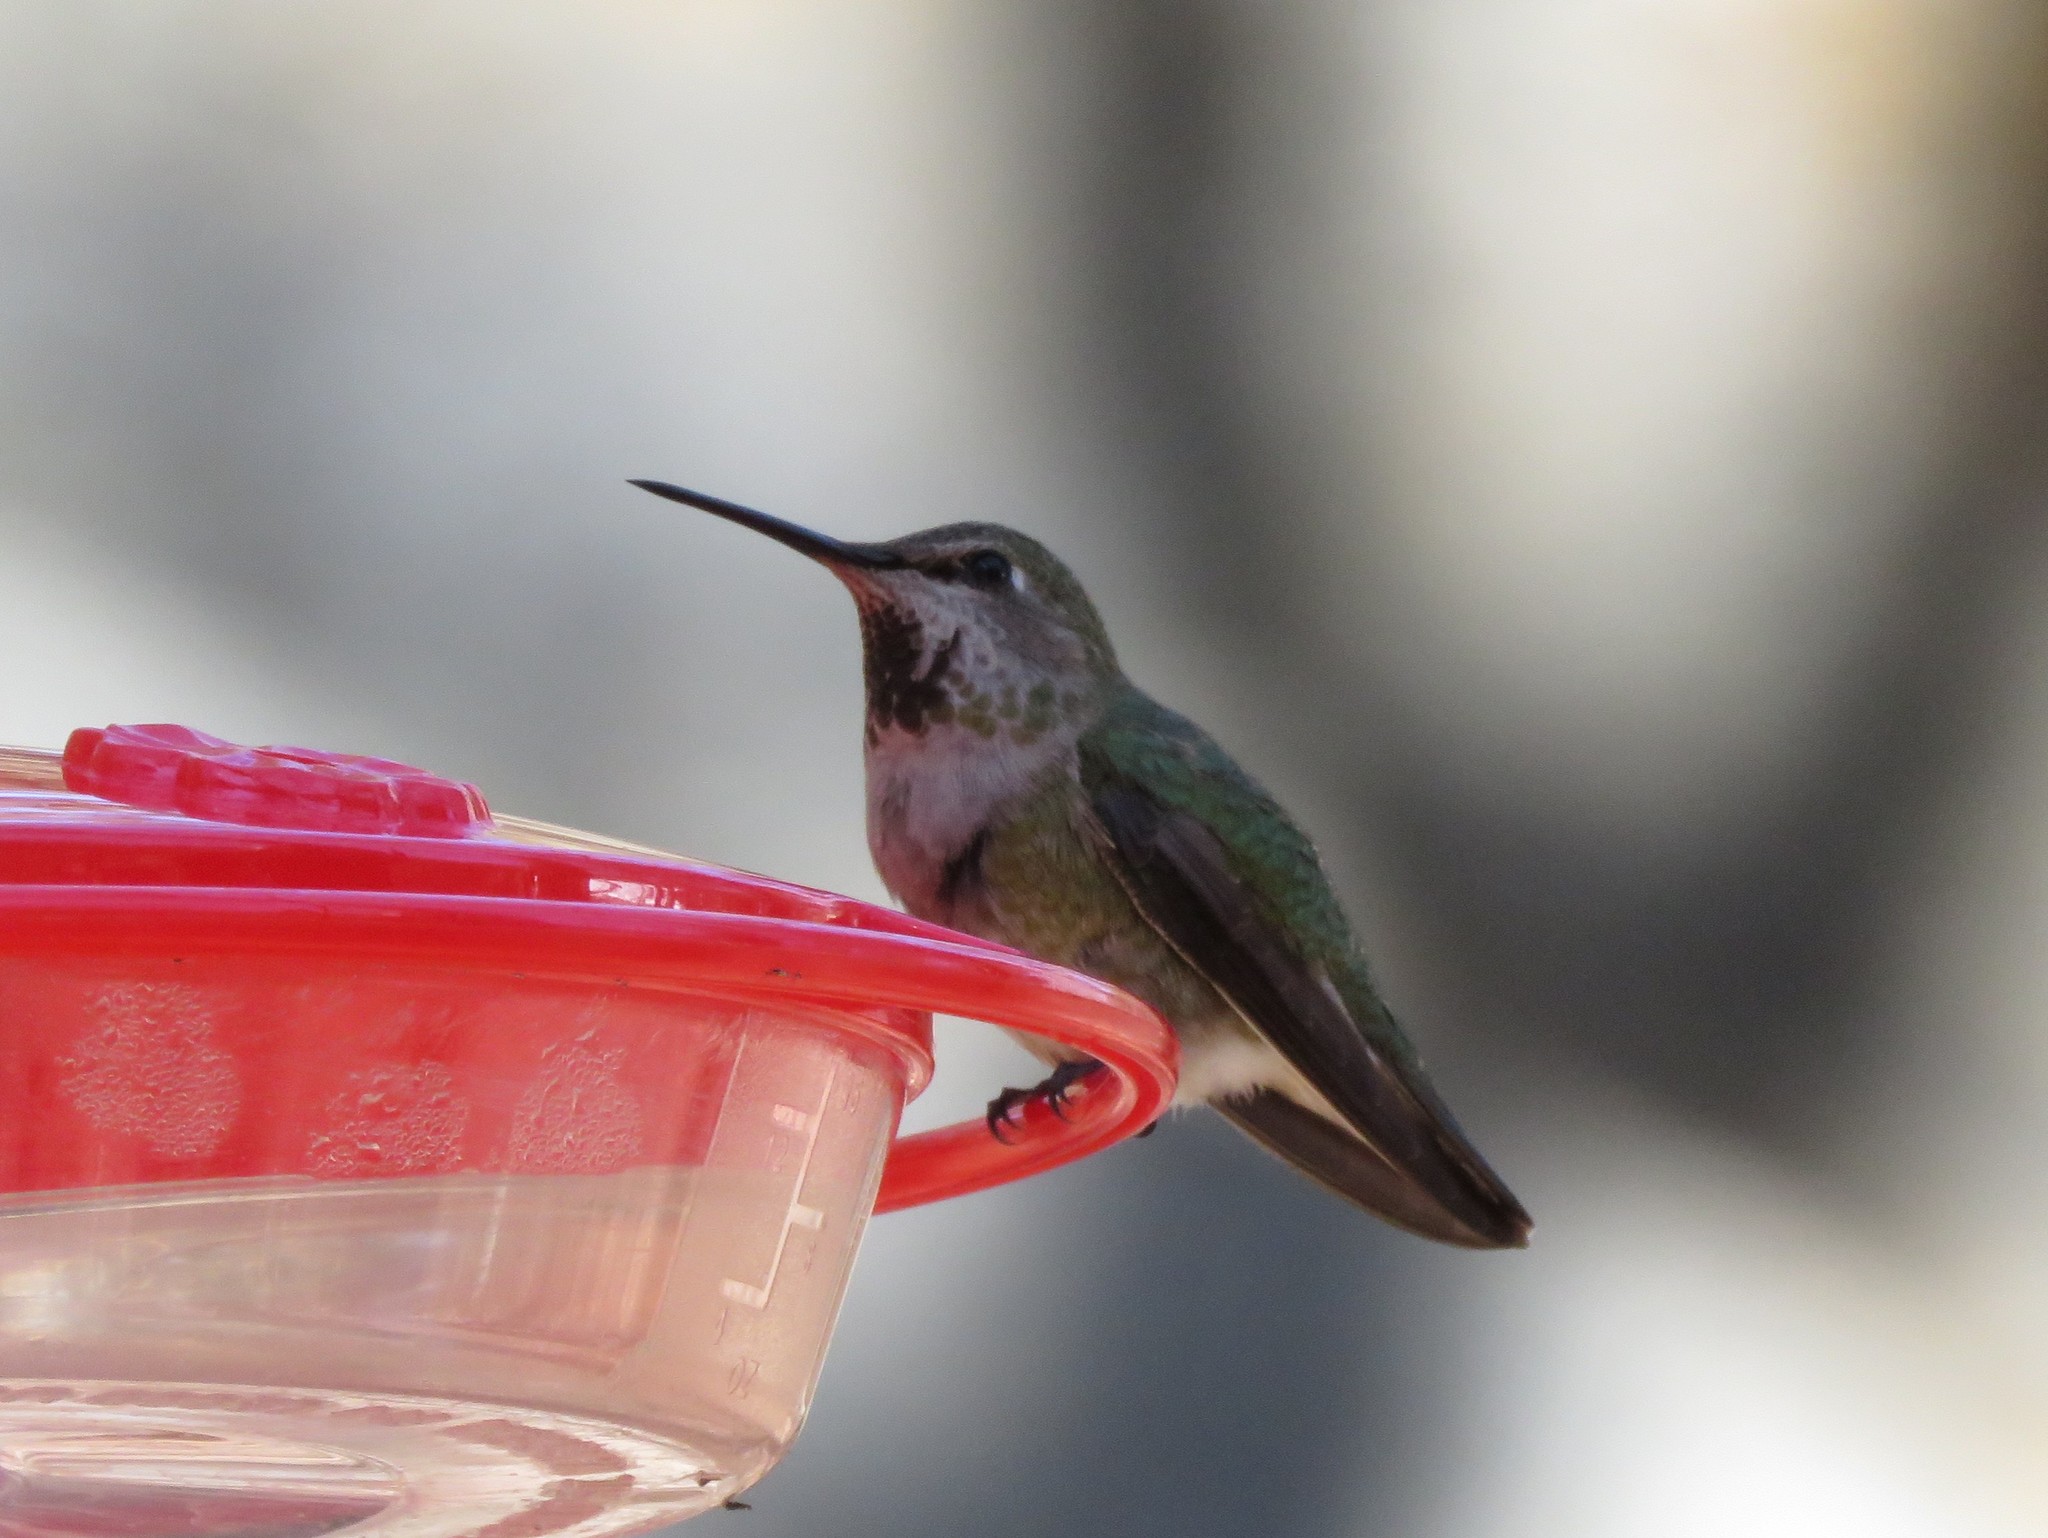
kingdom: Animalia
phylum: Chordata
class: Aves
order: Apodiformes
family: Trochilidae
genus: Calypte
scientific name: Calypte anna
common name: Anna's hummingbird
